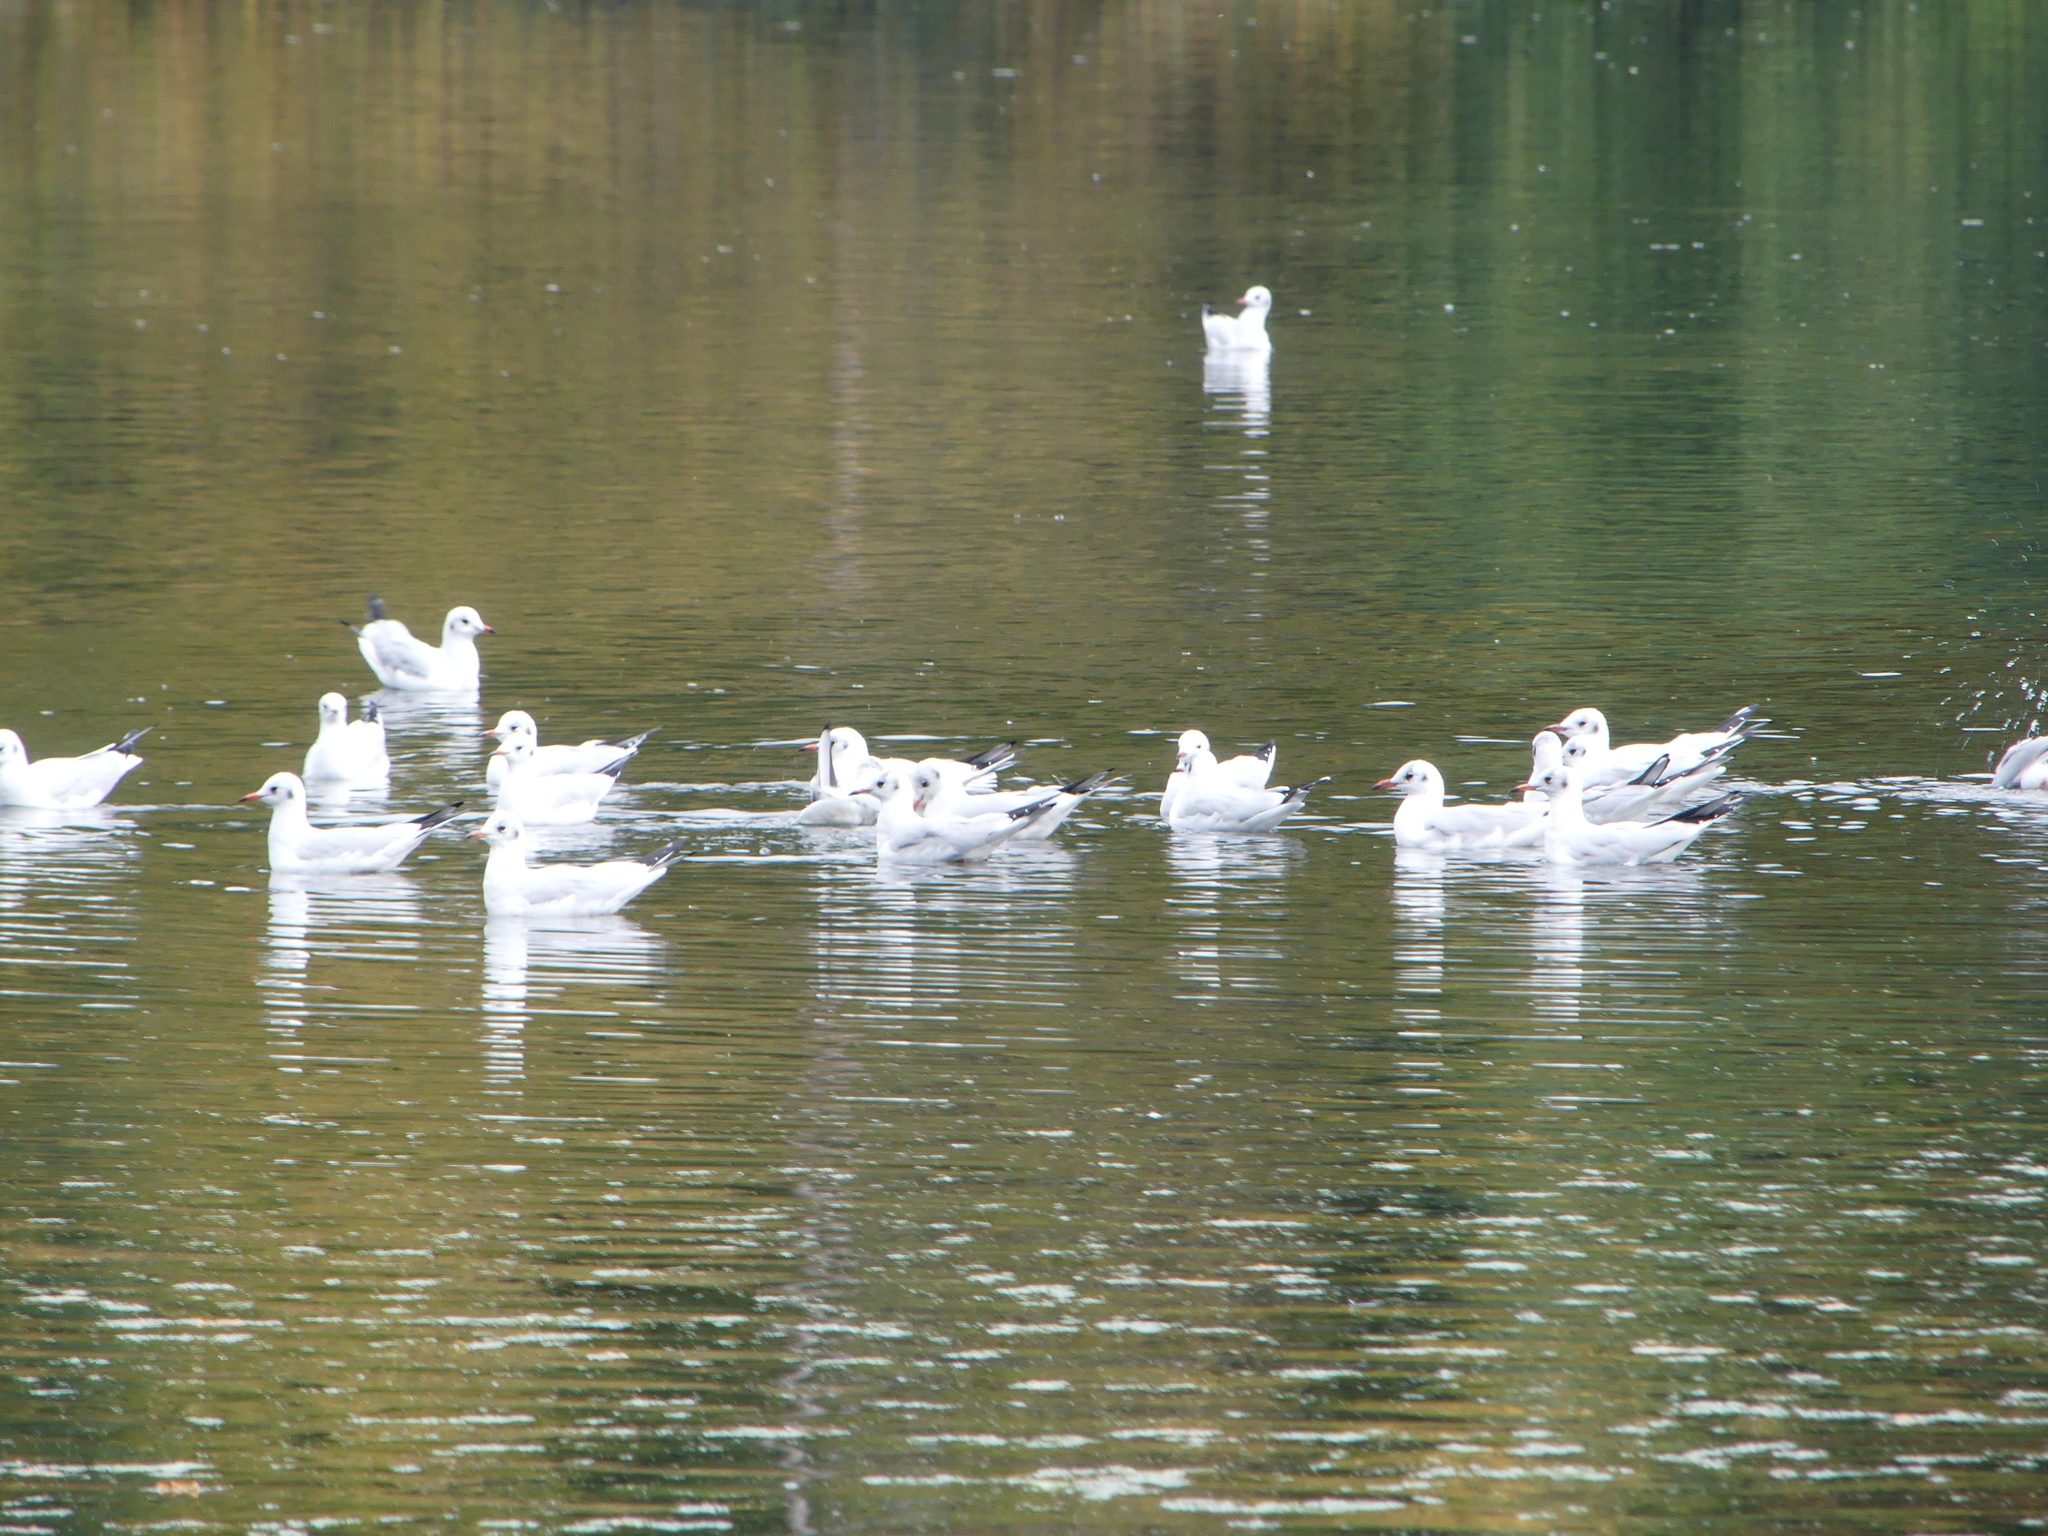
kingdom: Animalia
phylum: Chordata
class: Aves
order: Charadriiformes
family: Laridae
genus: Chroicocephalus
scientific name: Chroicocephalus ridibundus
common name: Black-headed gull
